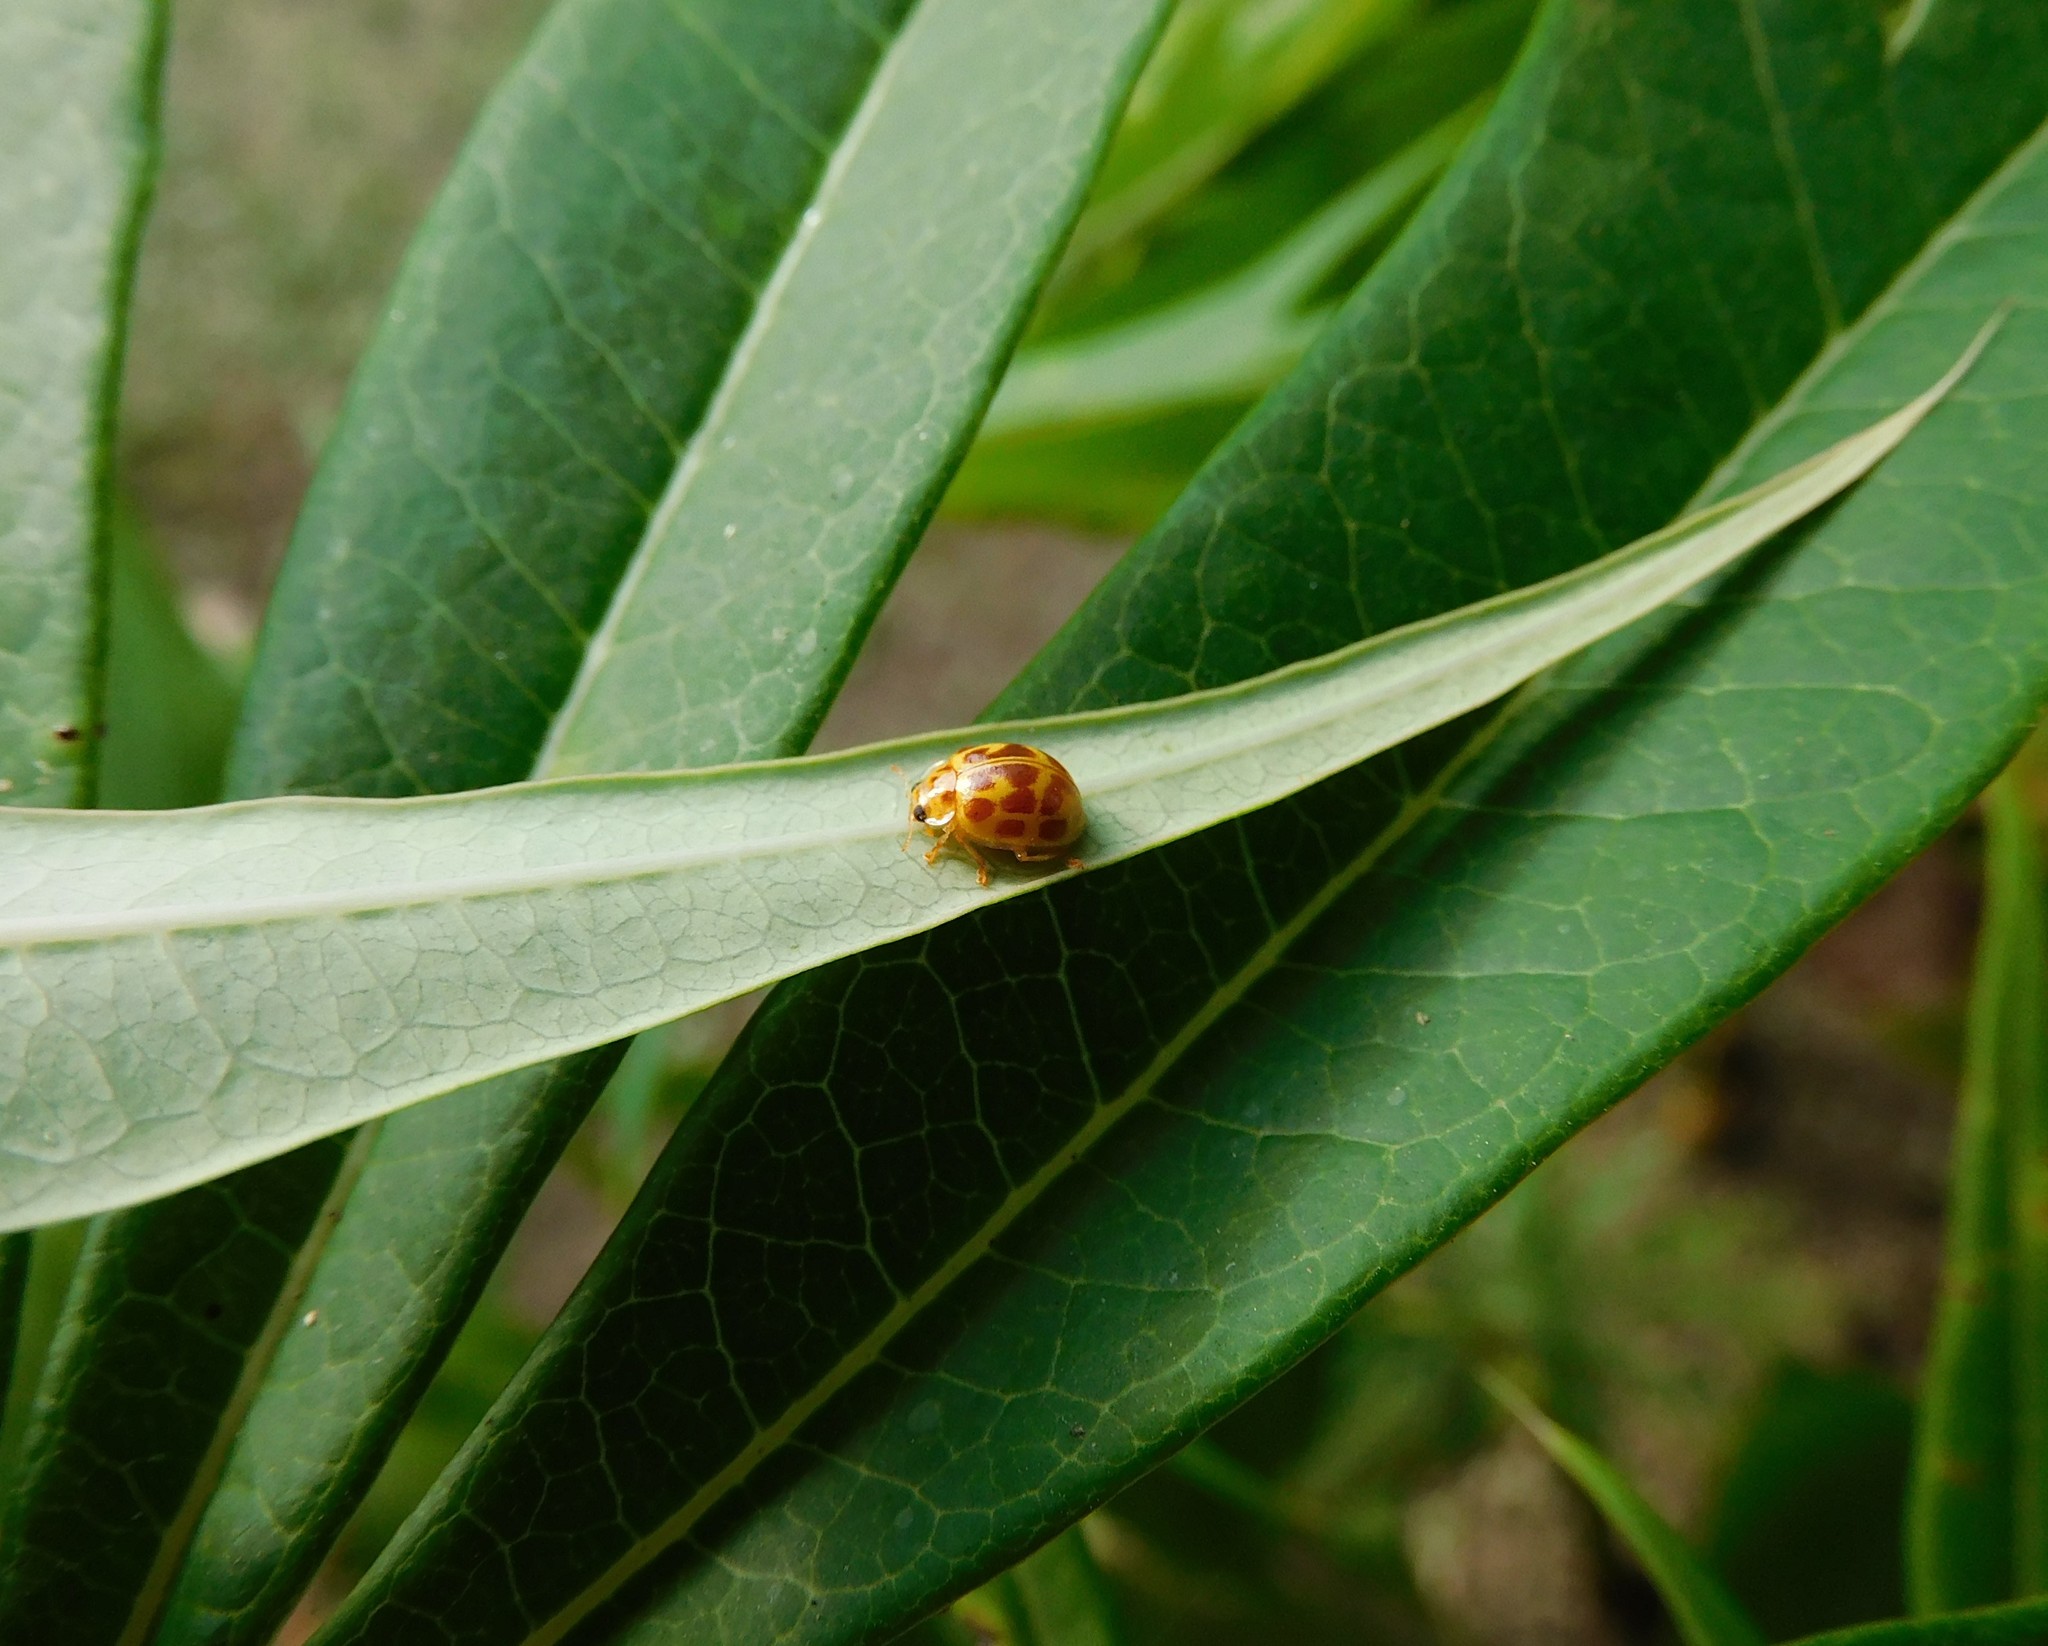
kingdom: Animalia
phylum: Arthropoda
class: Insecta
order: Coleoptera
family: Coccinellidae
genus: Psyllobora
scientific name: Psyllobora
